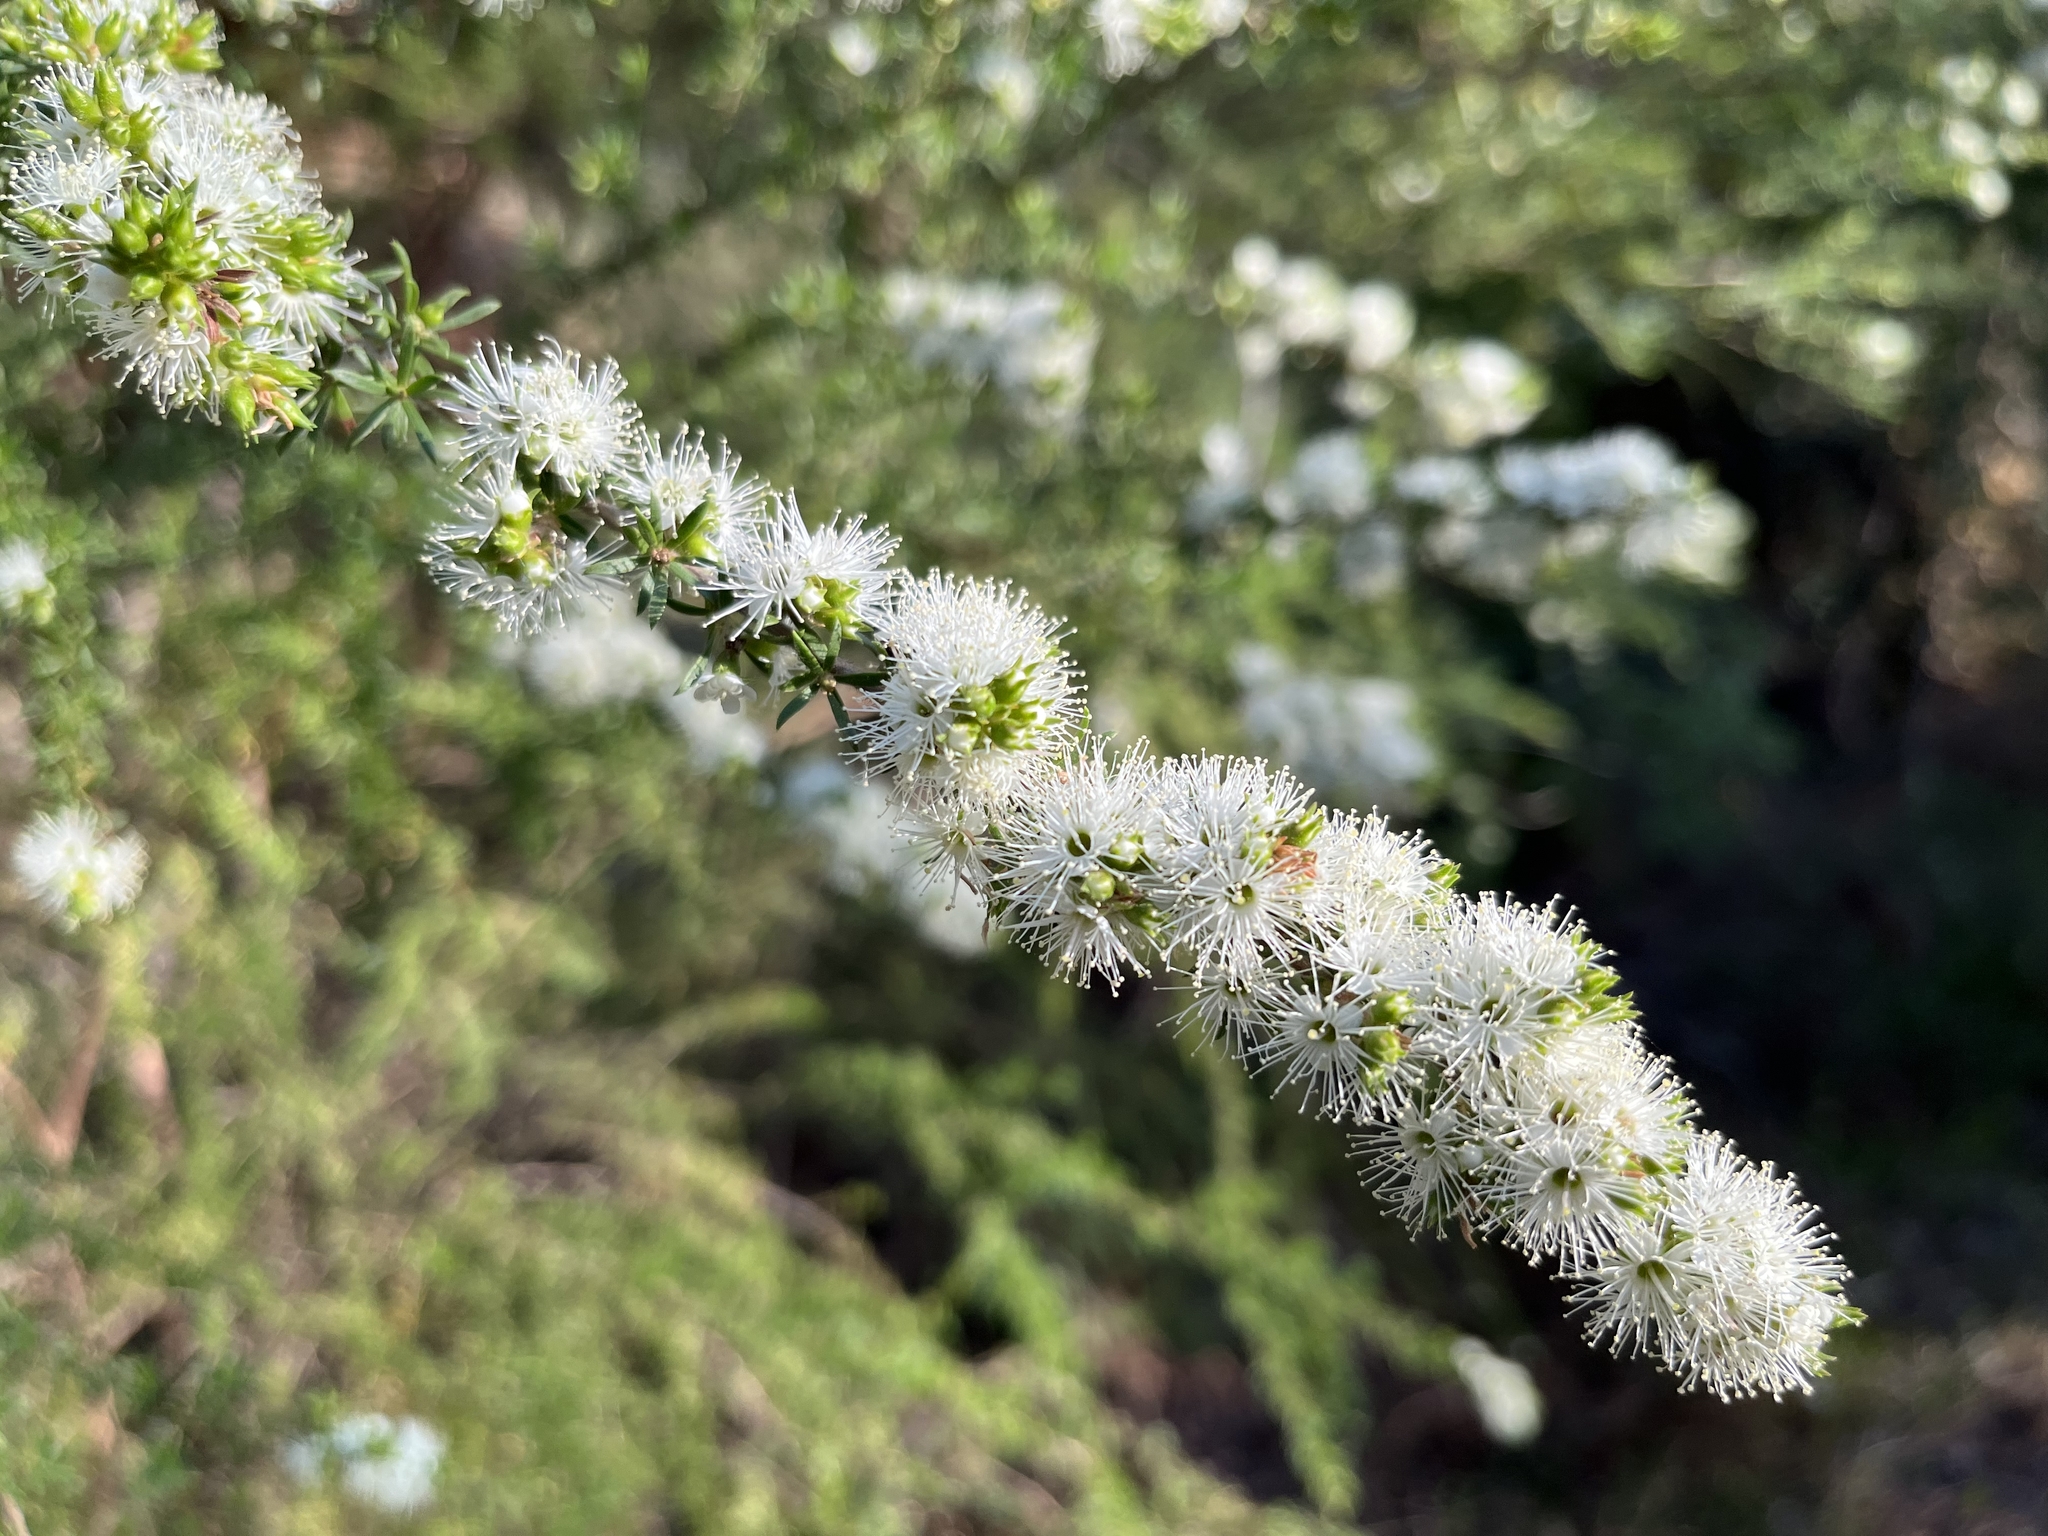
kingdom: Plantae
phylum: Tracheophyta
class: Magnoliopsida
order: Myrtales
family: Myrtaceae
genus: Kunzea
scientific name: Kunzea ambigua
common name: Tickbush
